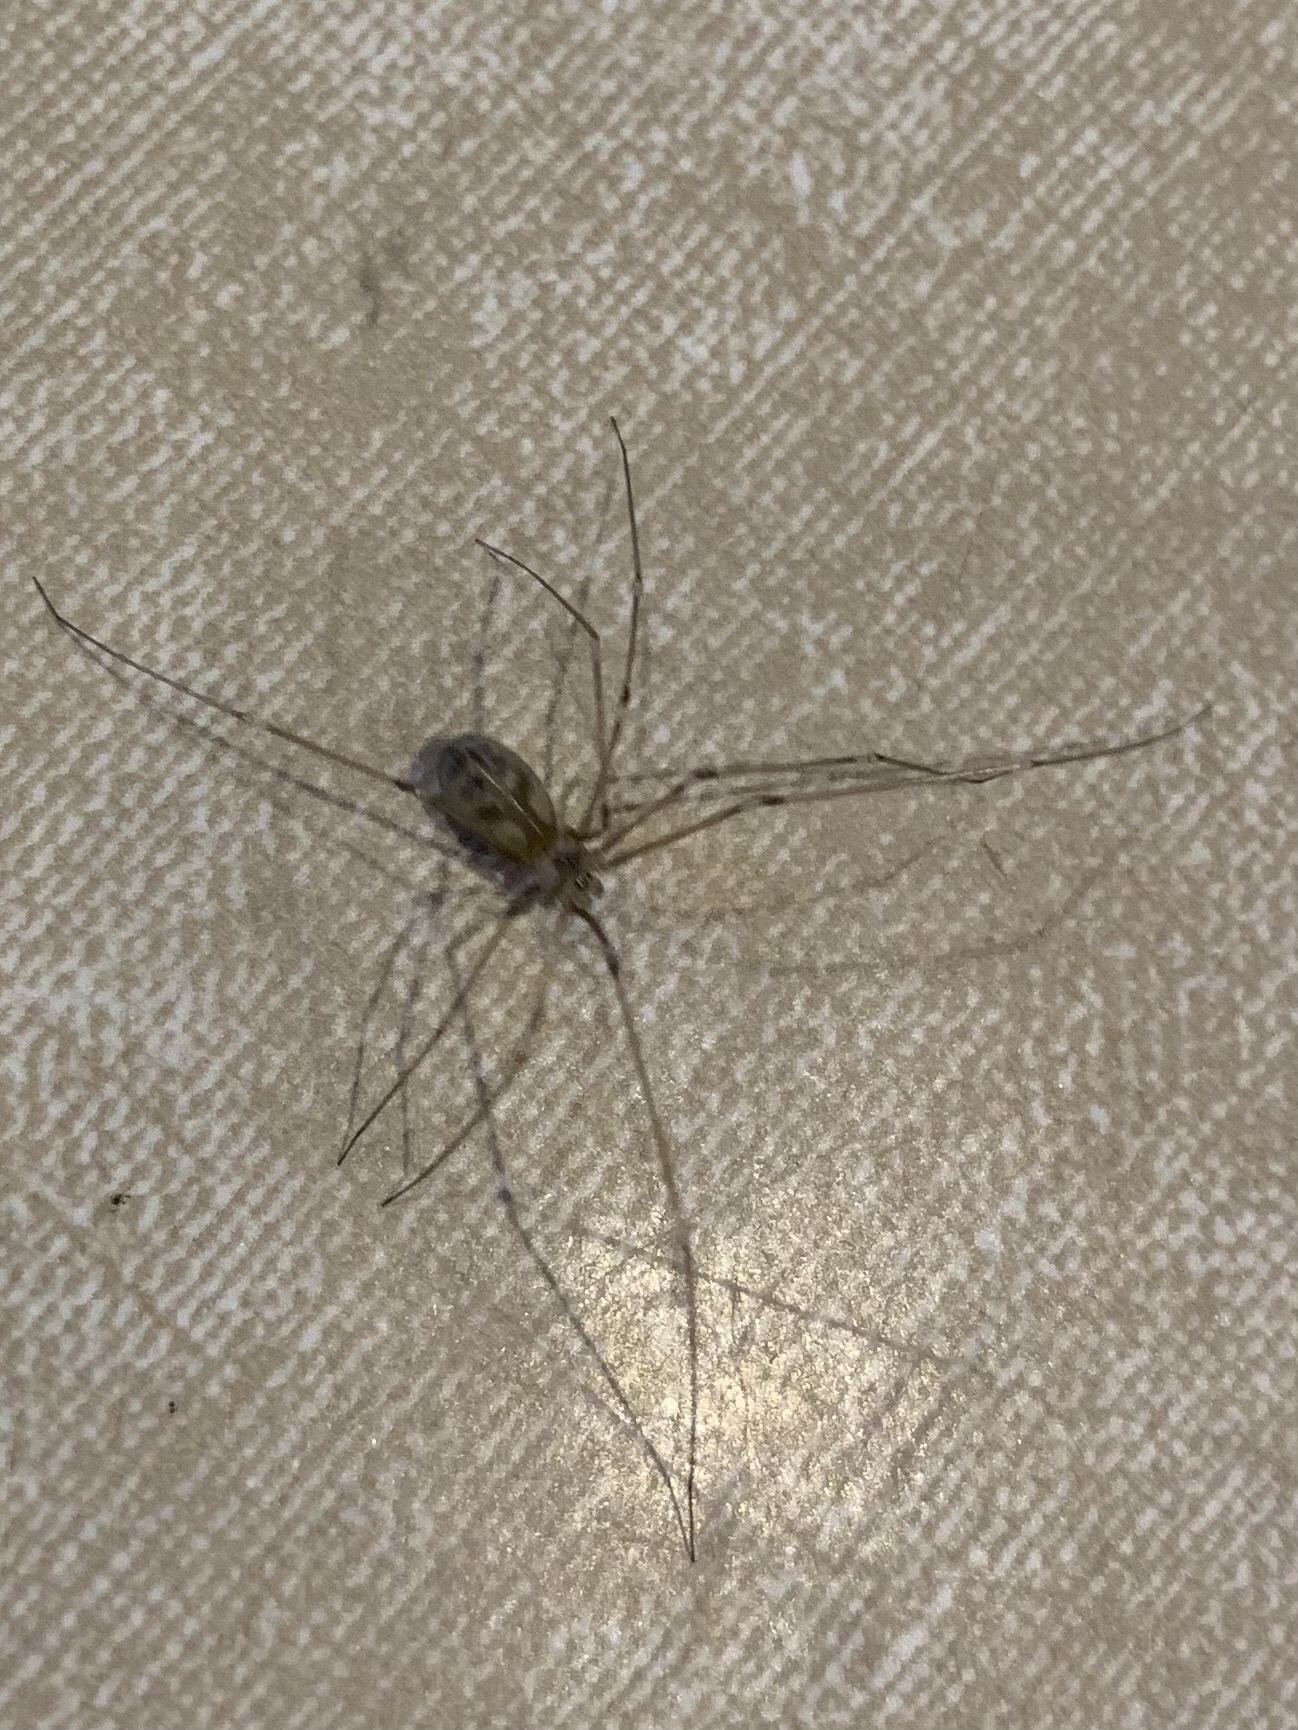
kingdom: Animalia
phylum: Arthropoda
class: Arachnida
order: Araneae
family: Pholcidae
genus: Pholcus
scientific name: Pholcus phalangioides
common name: Longbodied cellar spider
